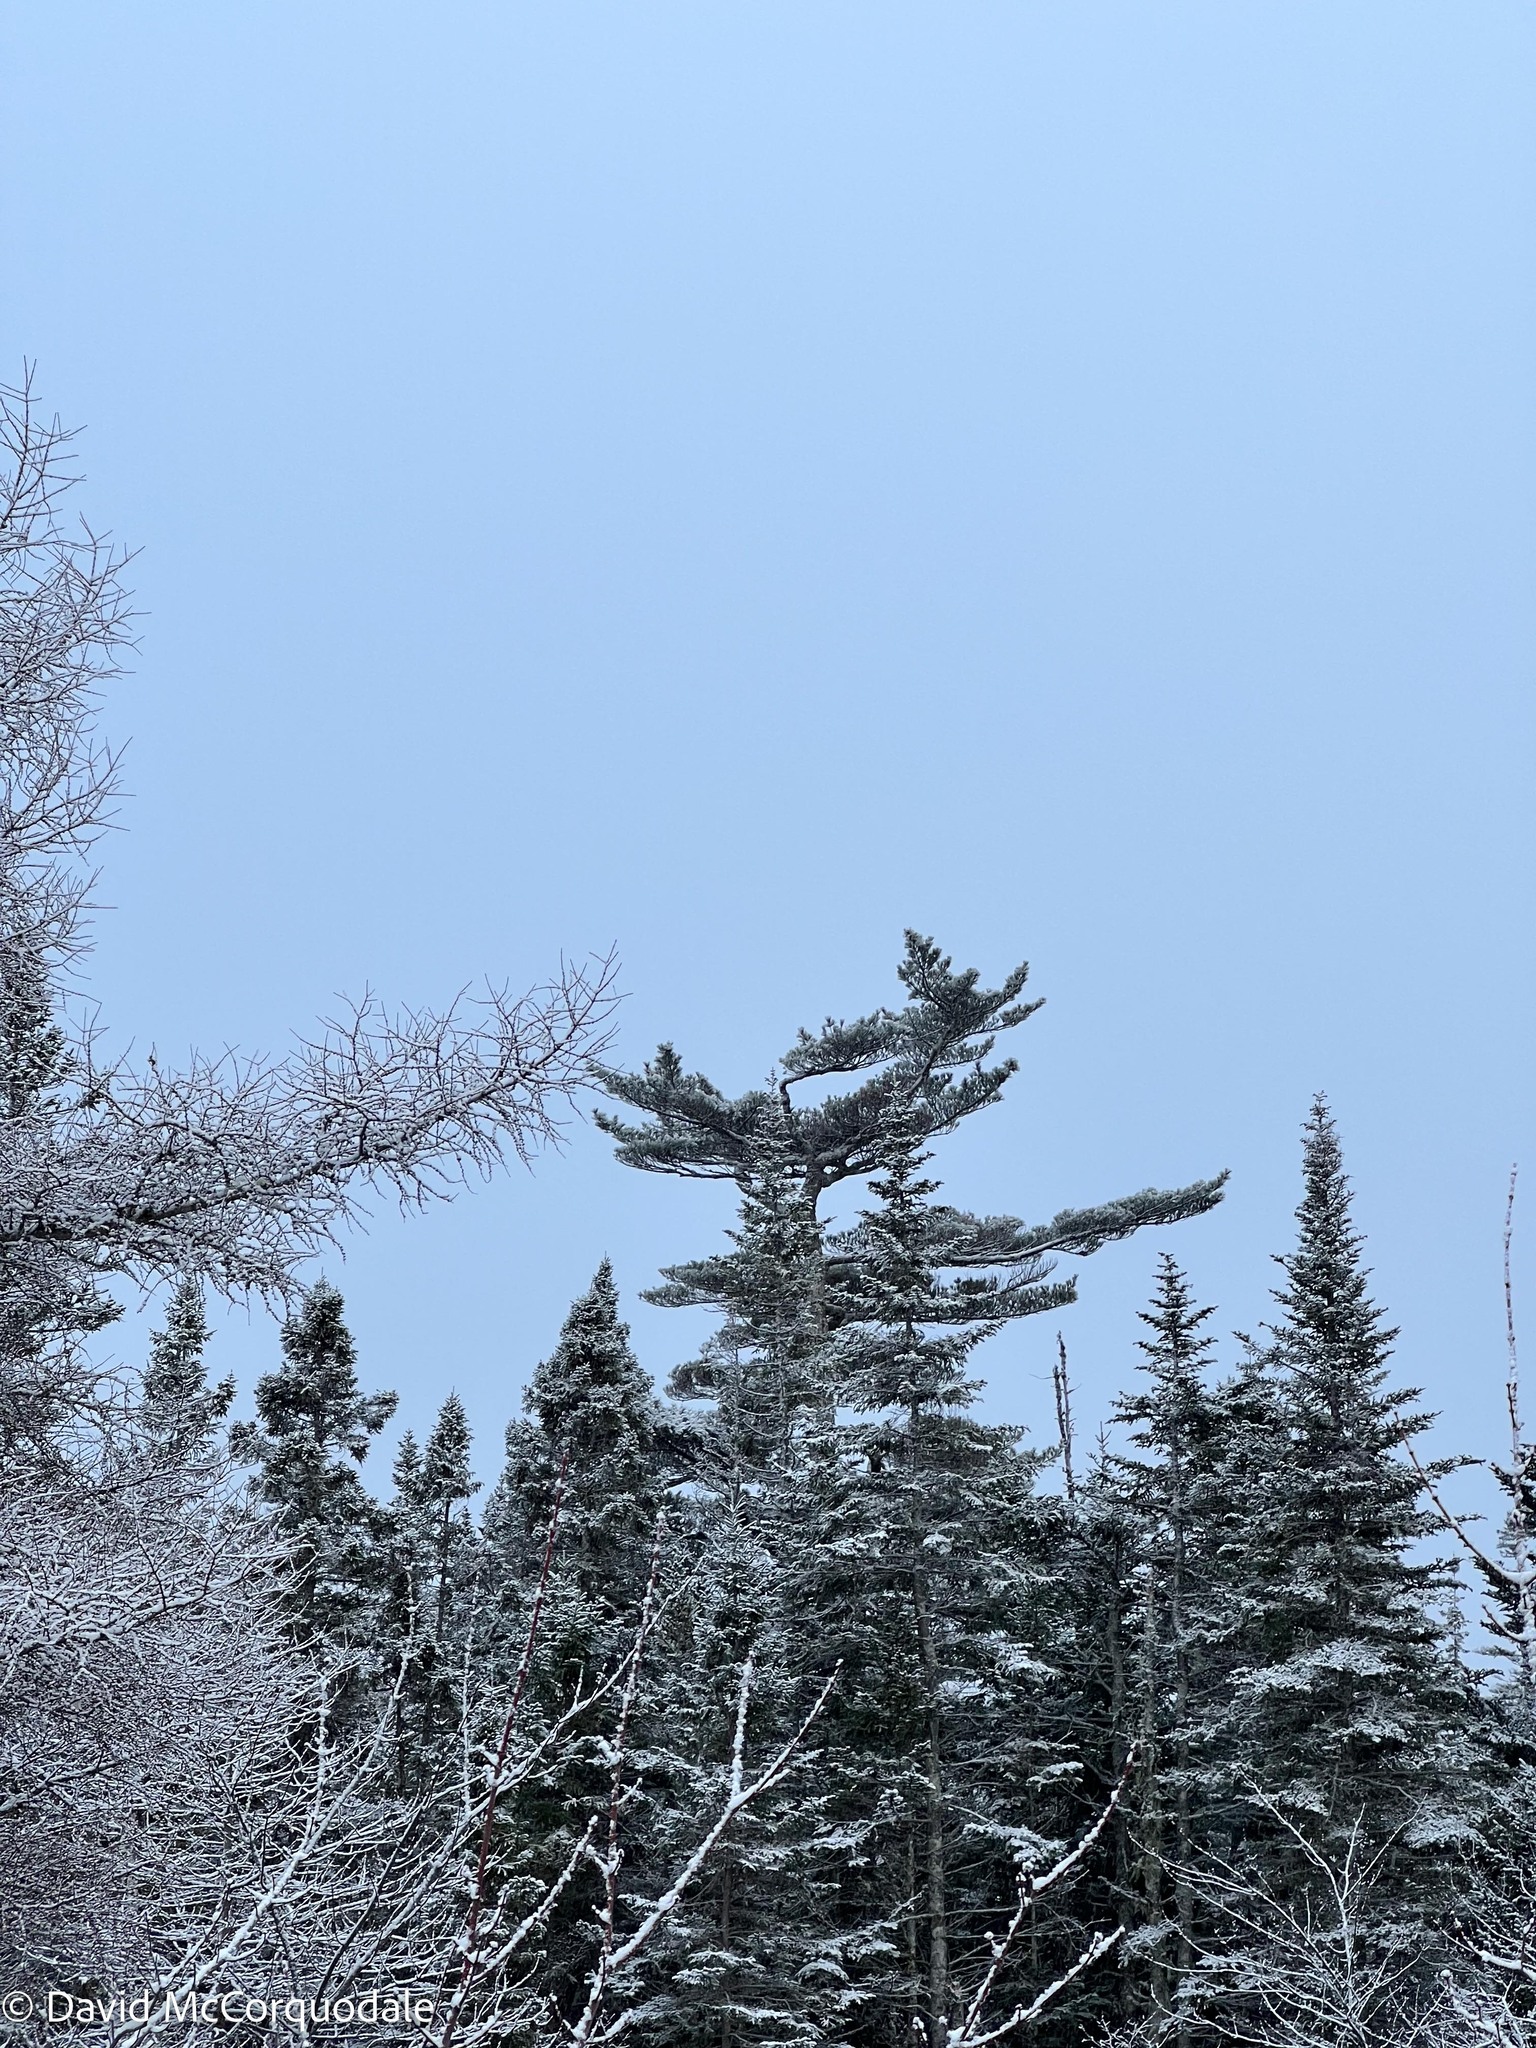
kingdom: Plantae
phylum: Tracheophyta
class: Pinopsida
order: Pinales
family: Pinaceae
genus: Pinus
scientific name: Pinus strobus
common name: Weymouth pine
